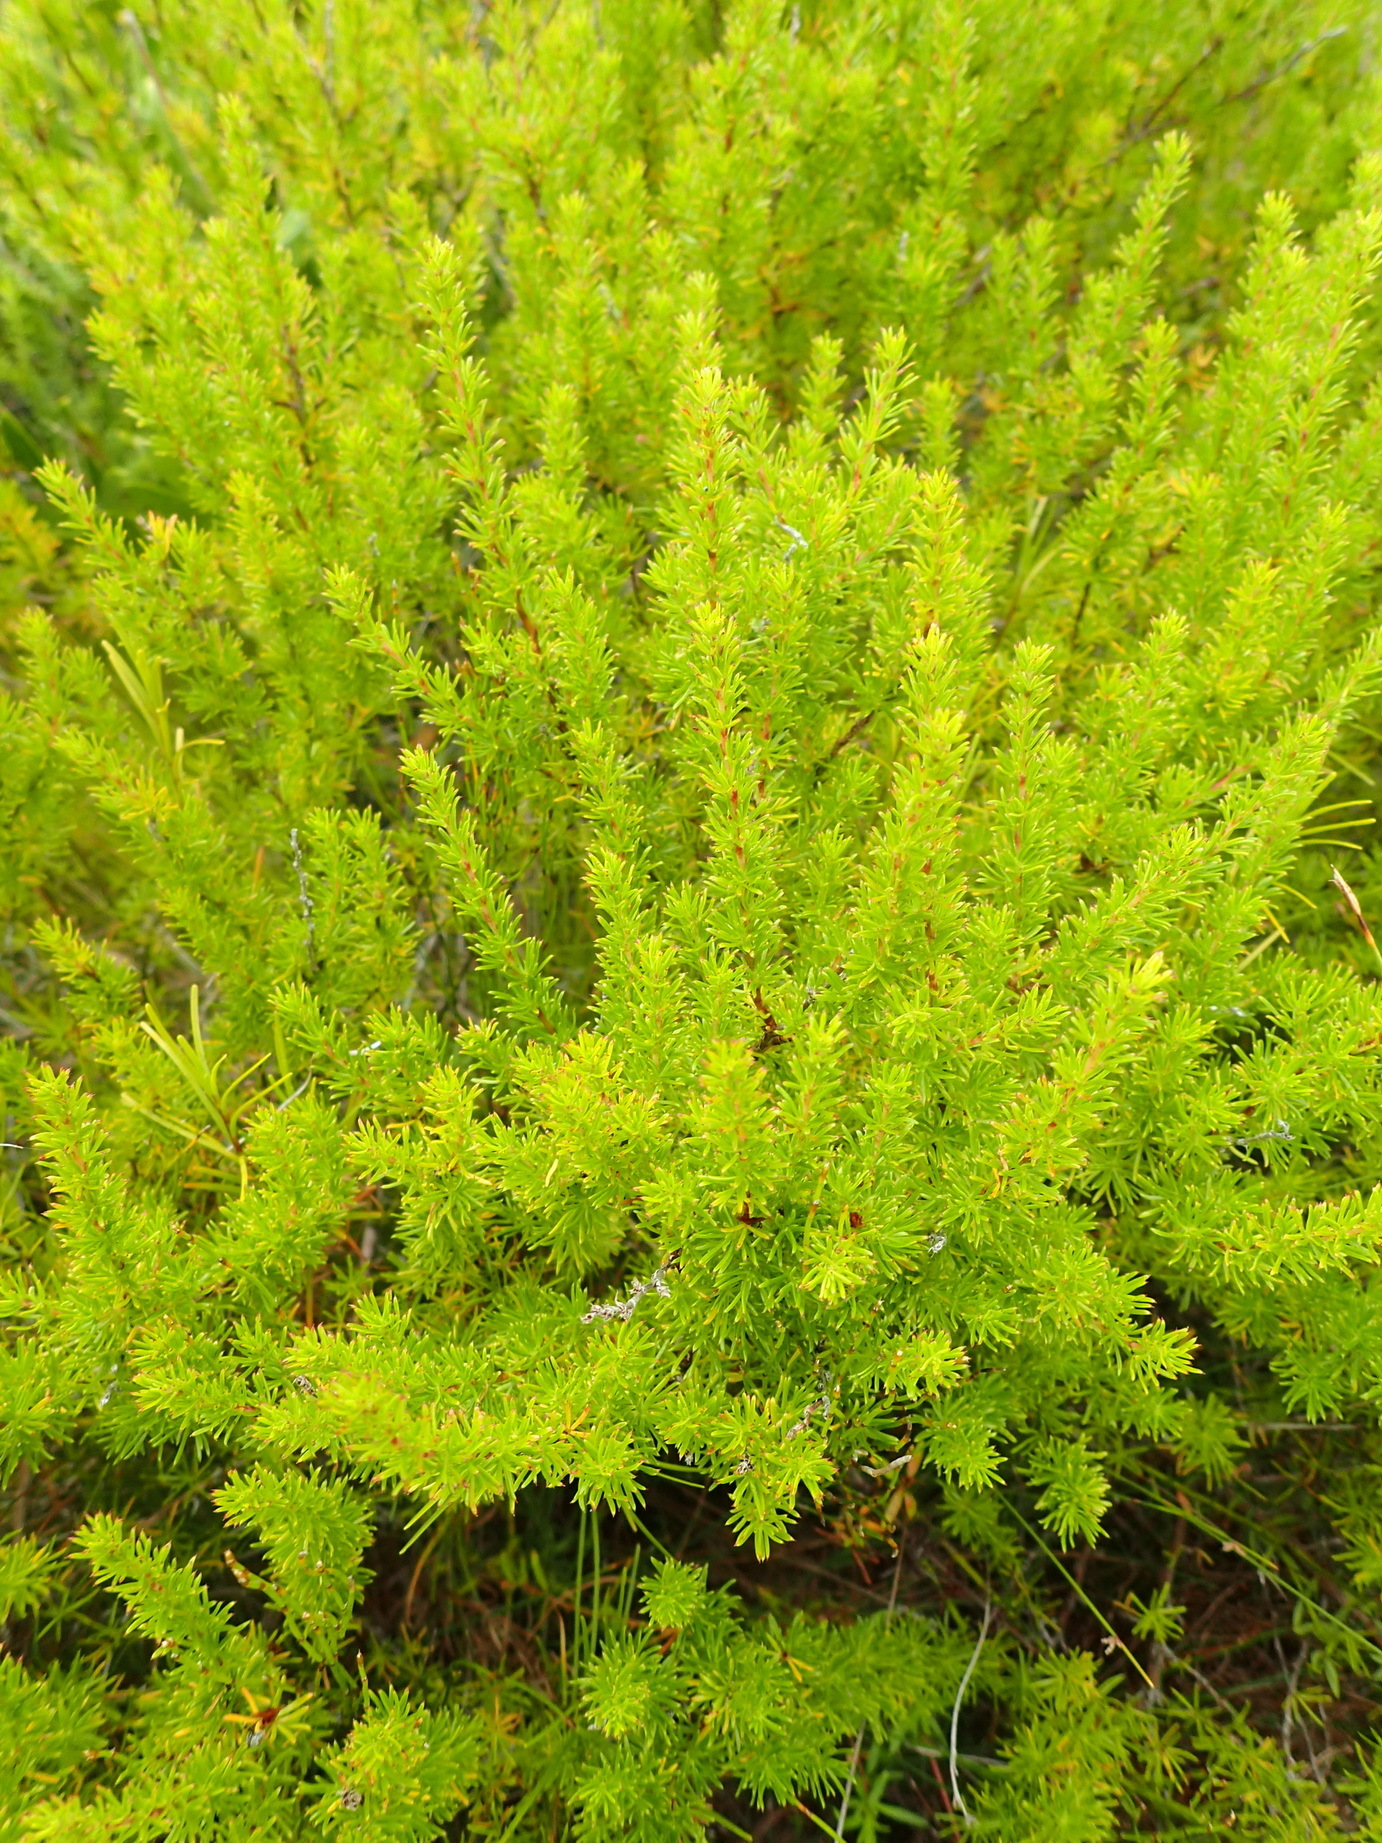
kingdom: Plantae
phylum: Tracheophyta
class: Magnoliopsida
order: Rosales
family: Rosaceae
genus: Cliffortia
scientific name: Cliffortia filifolia
